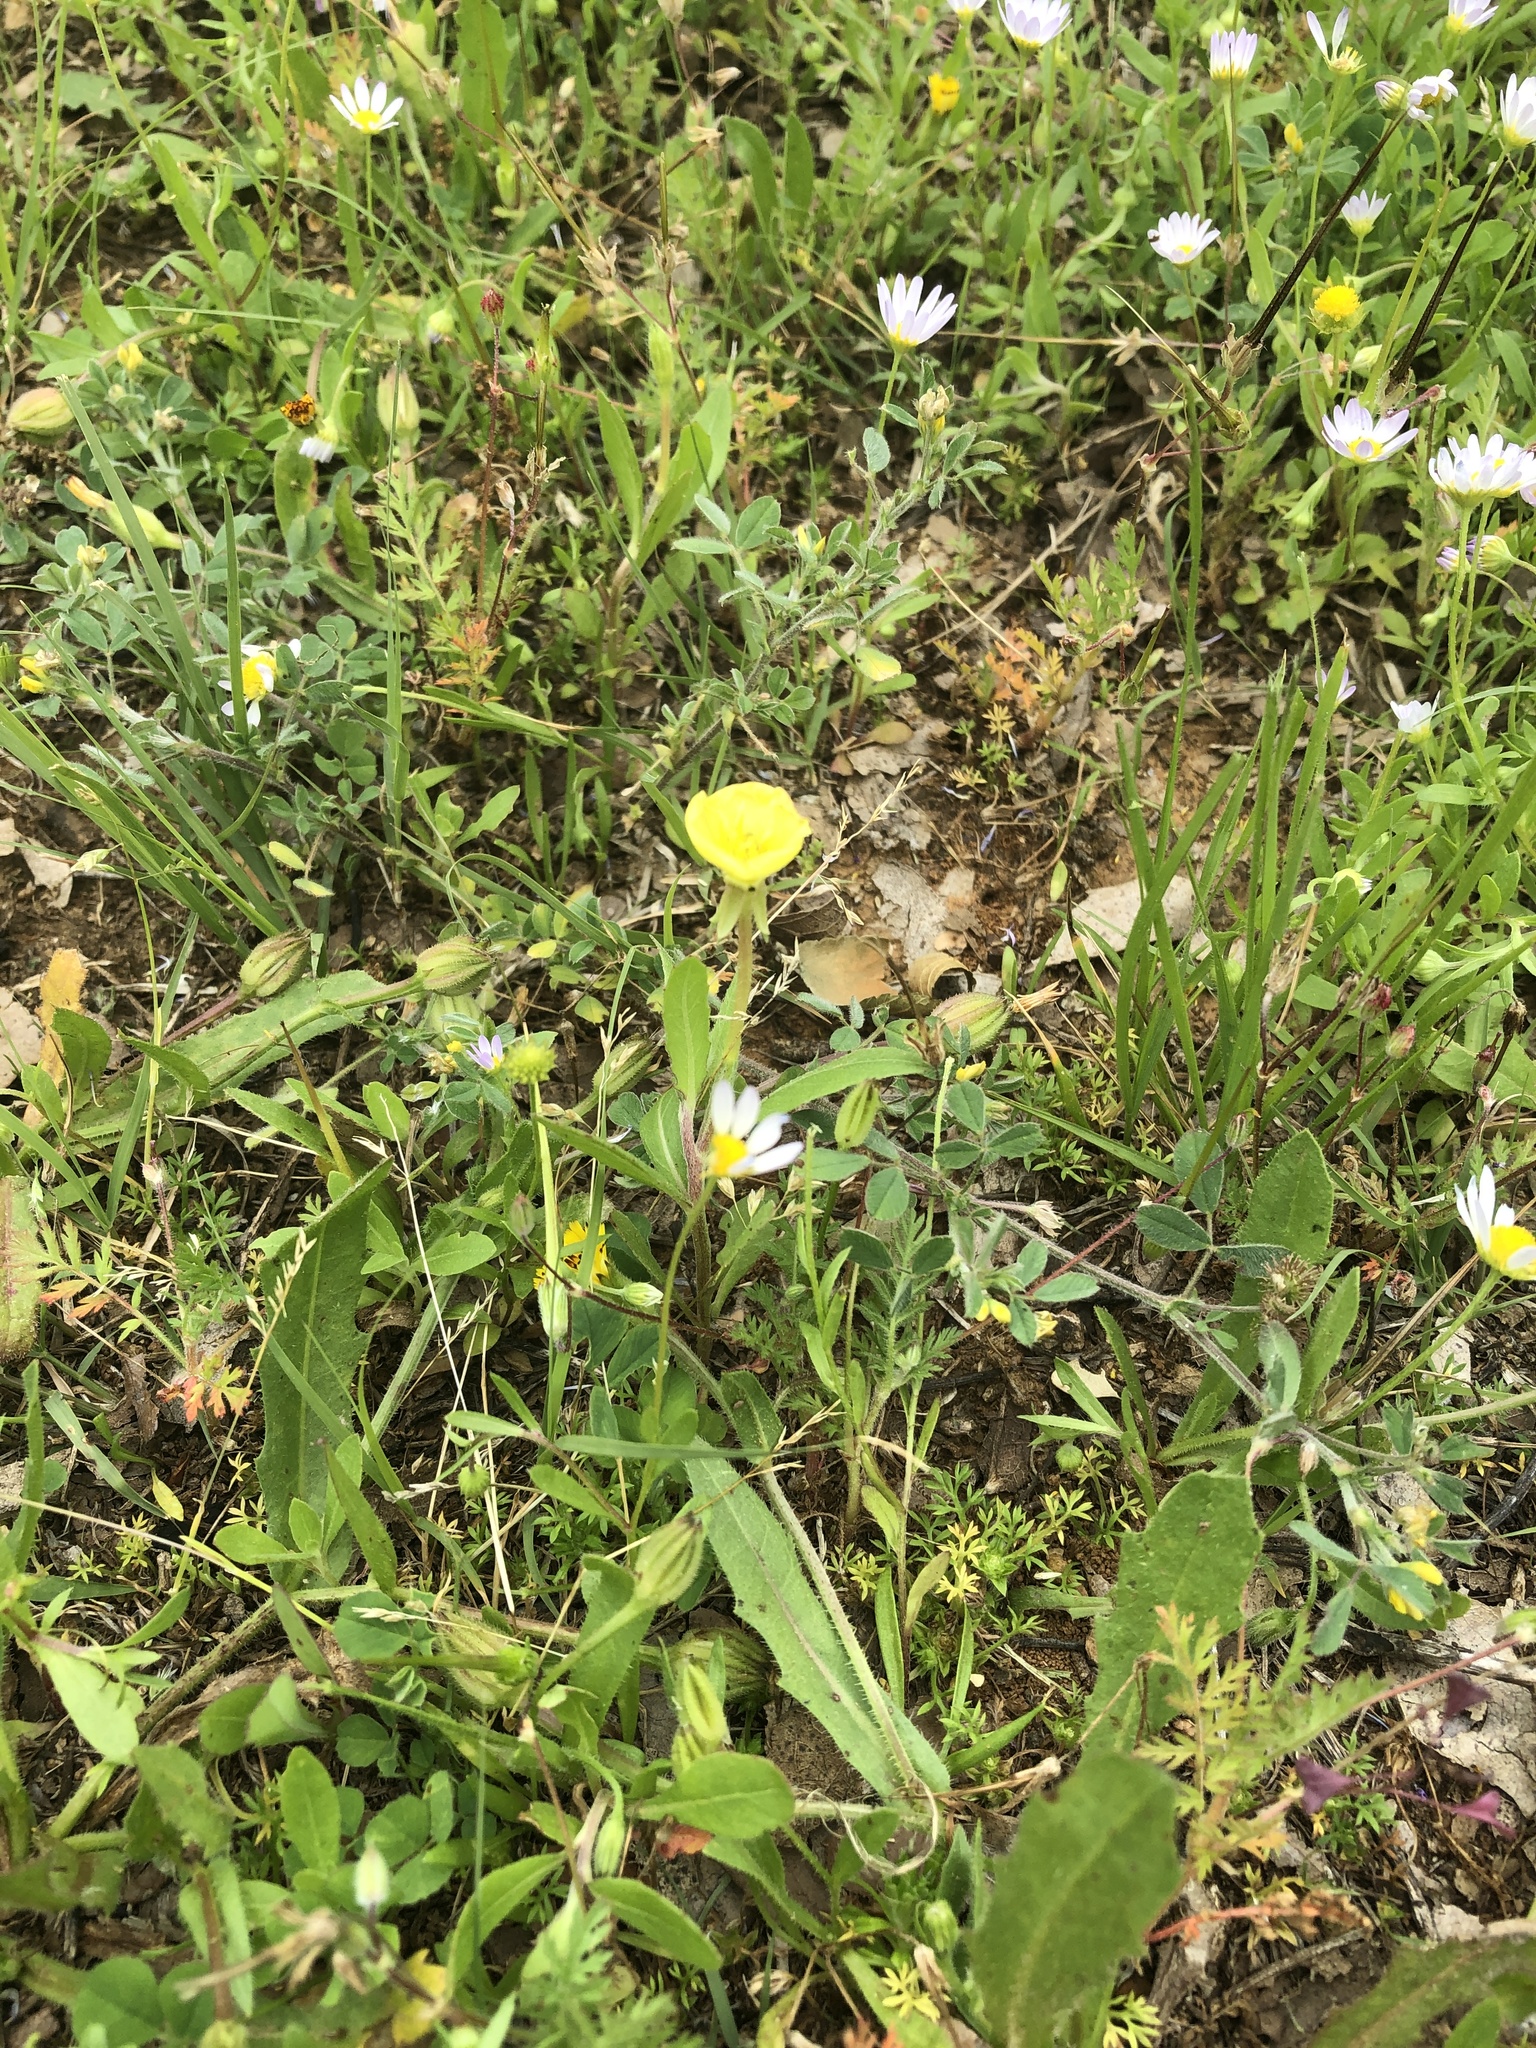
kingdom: Plantae
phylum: Tracheophyta
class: Magnoliopsida
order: Myrtales
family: Onagraceae
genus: Oenothera
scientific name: Oenothera laciniata
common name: Cut-leaved evening-primrose
